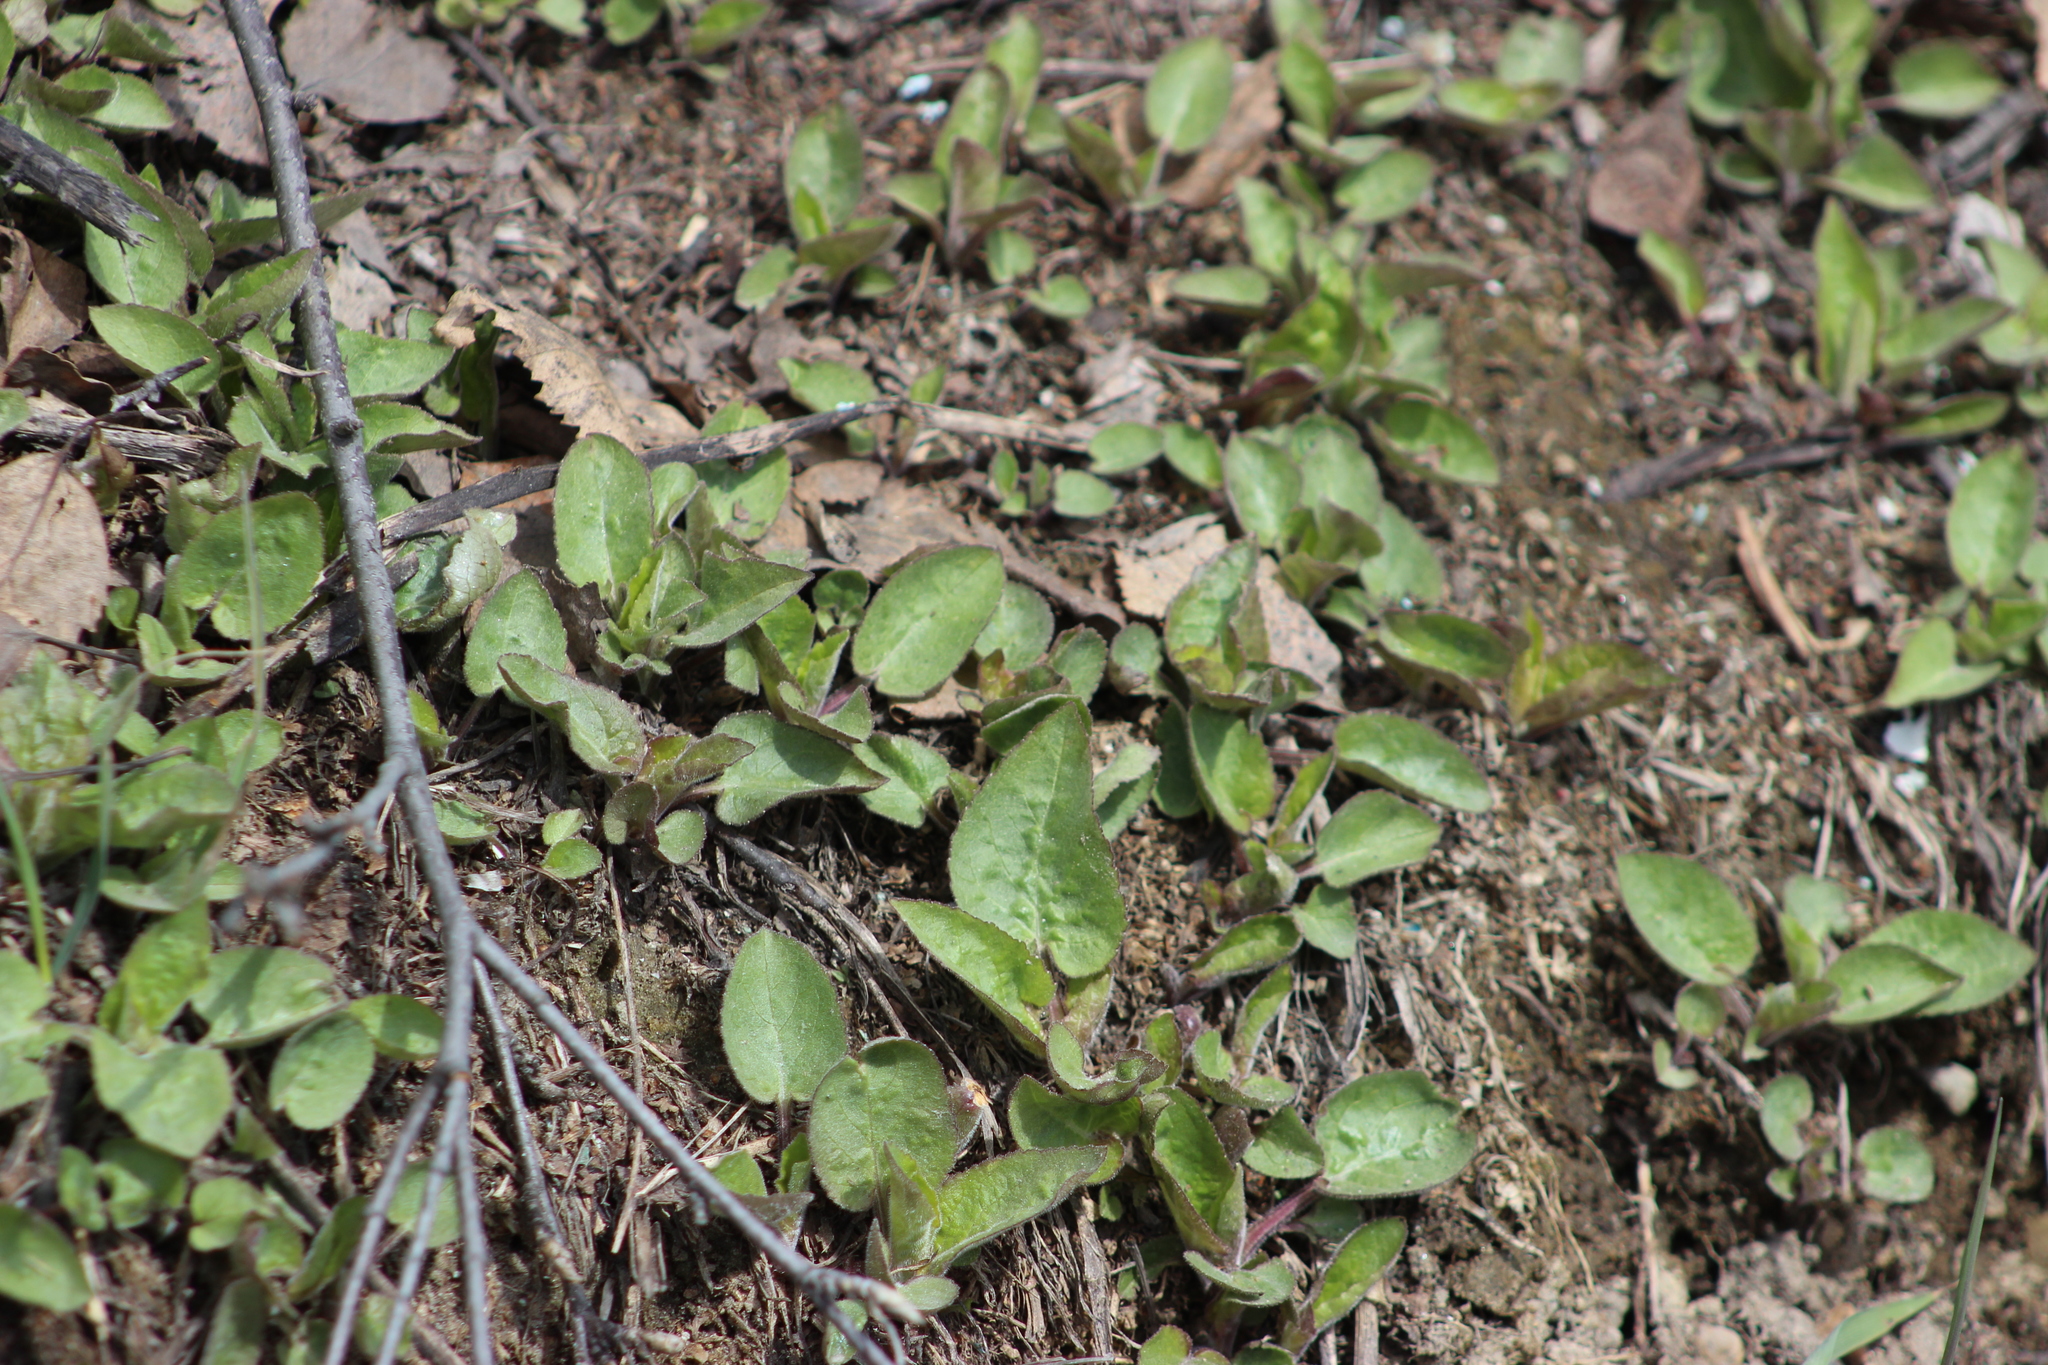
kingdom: Plantae
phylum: Tracheophyta
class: Magnoliopsida
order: Asterales
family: Campanulaceae
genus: Campanula
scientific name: Campanula rapunculoides
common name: Creeping bellflower
